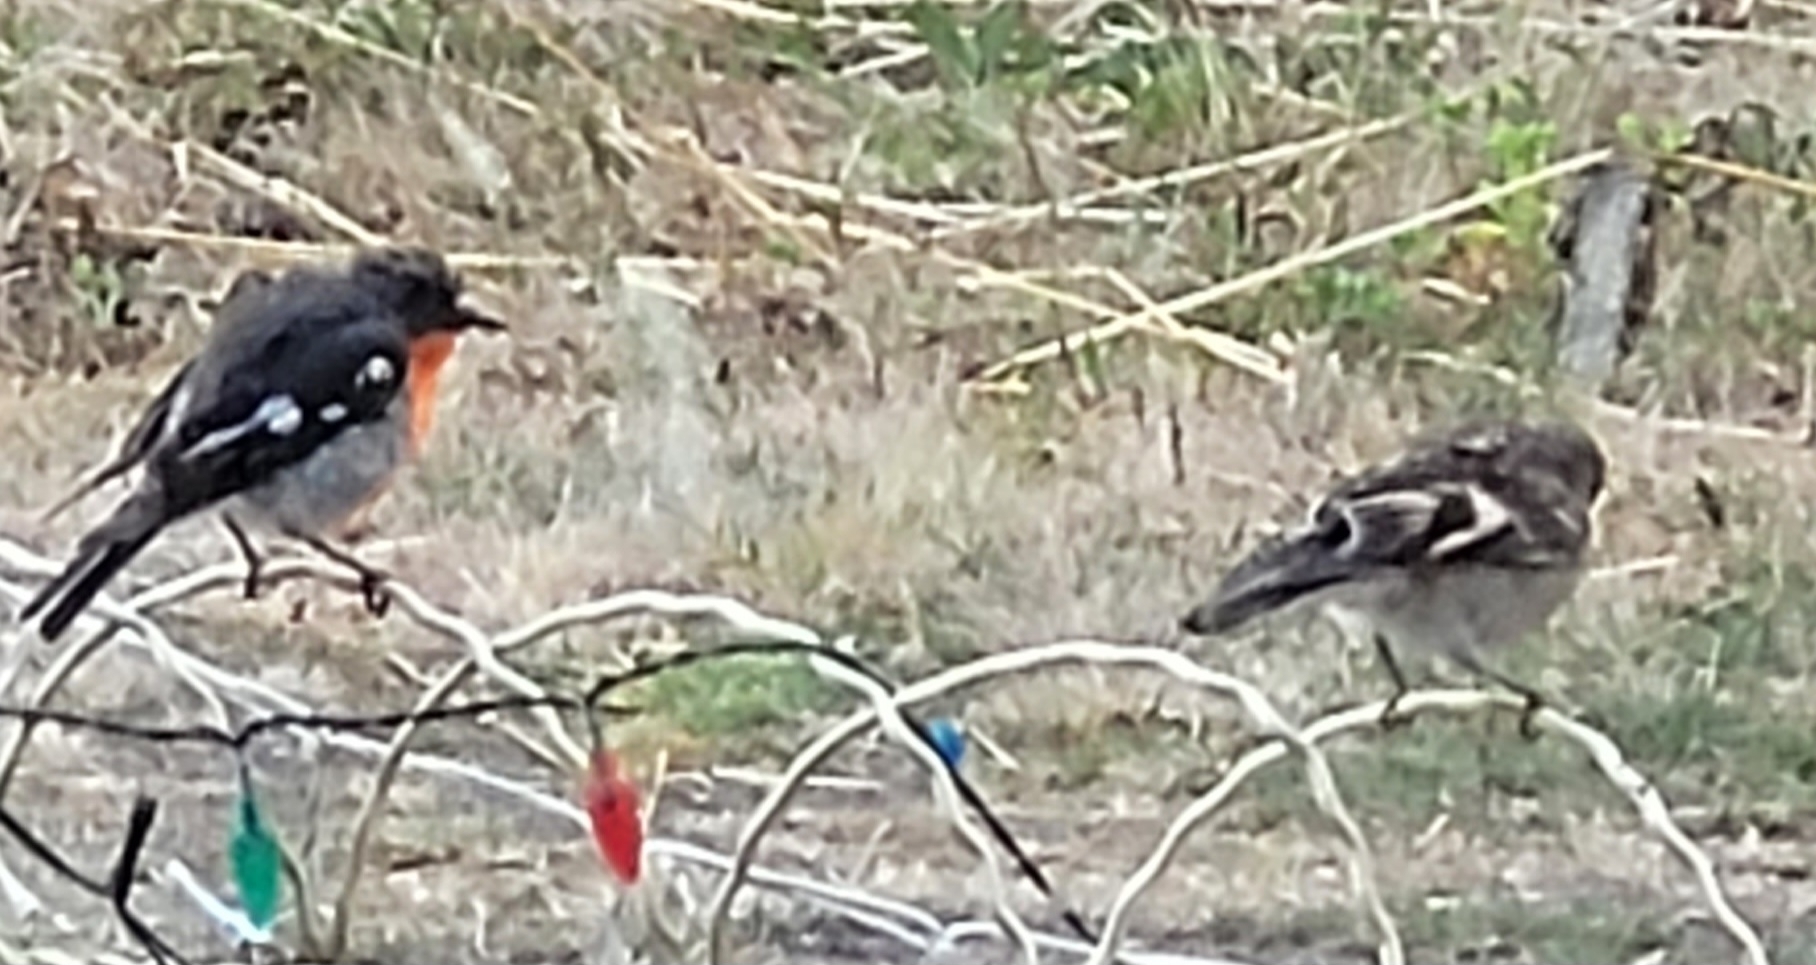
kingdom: Animalia
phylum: Chordata
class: Aves
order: Passeriformes
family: Petroicidae
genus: Petroica
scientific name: Petroica boodang
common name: Scarlet robin
